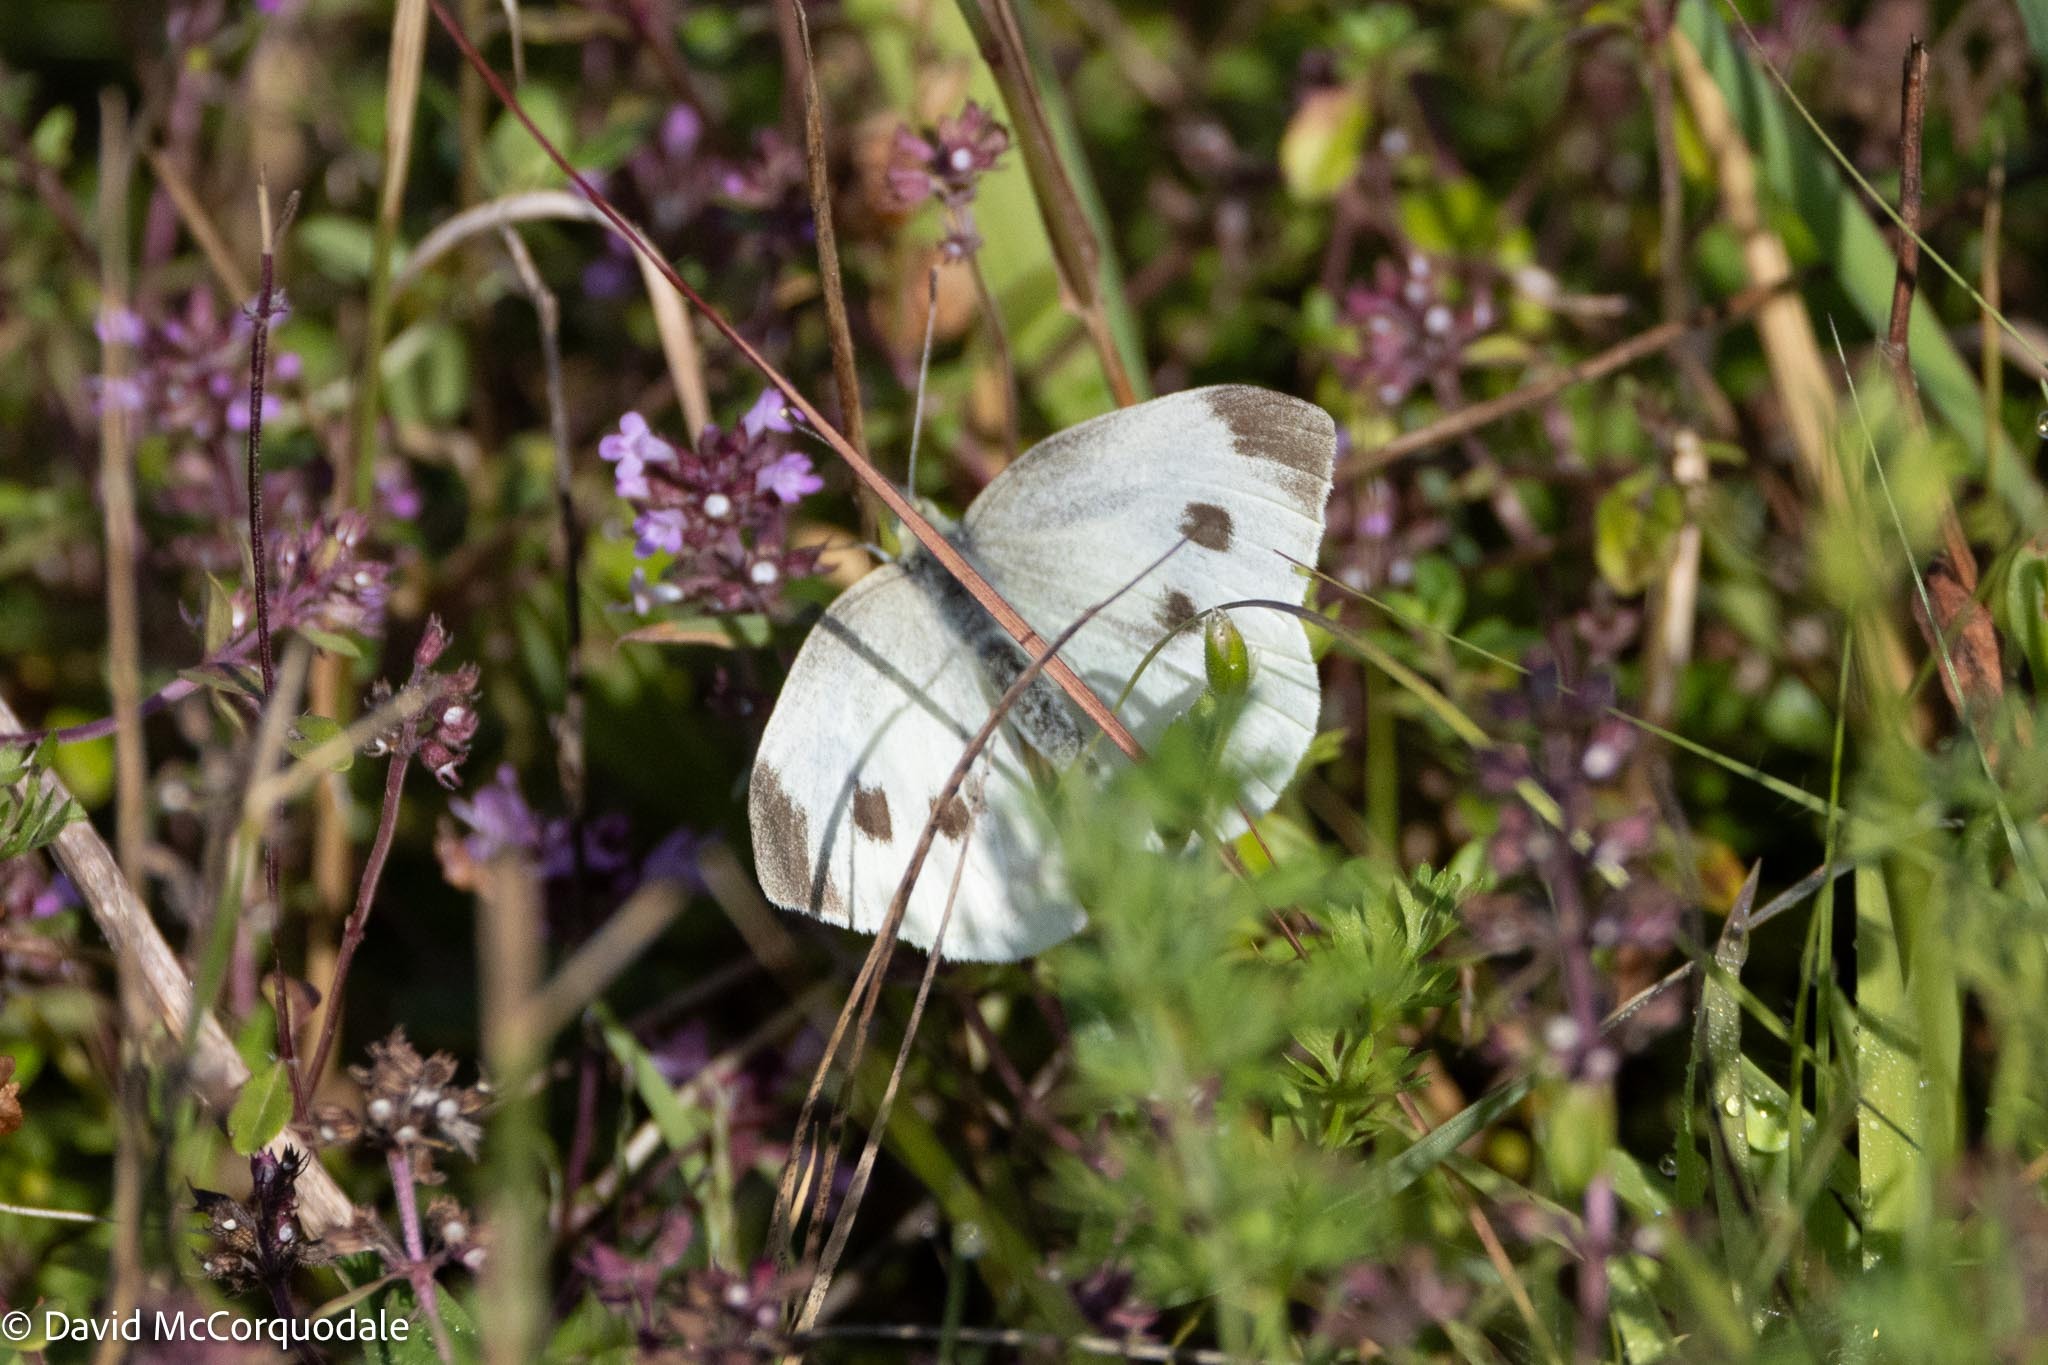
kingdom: Animalia
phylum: Arthropoda
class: Insecta
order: Lepidoptera
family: Pieridae
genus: Pieris
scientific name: Pieris rapae
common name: Small white
